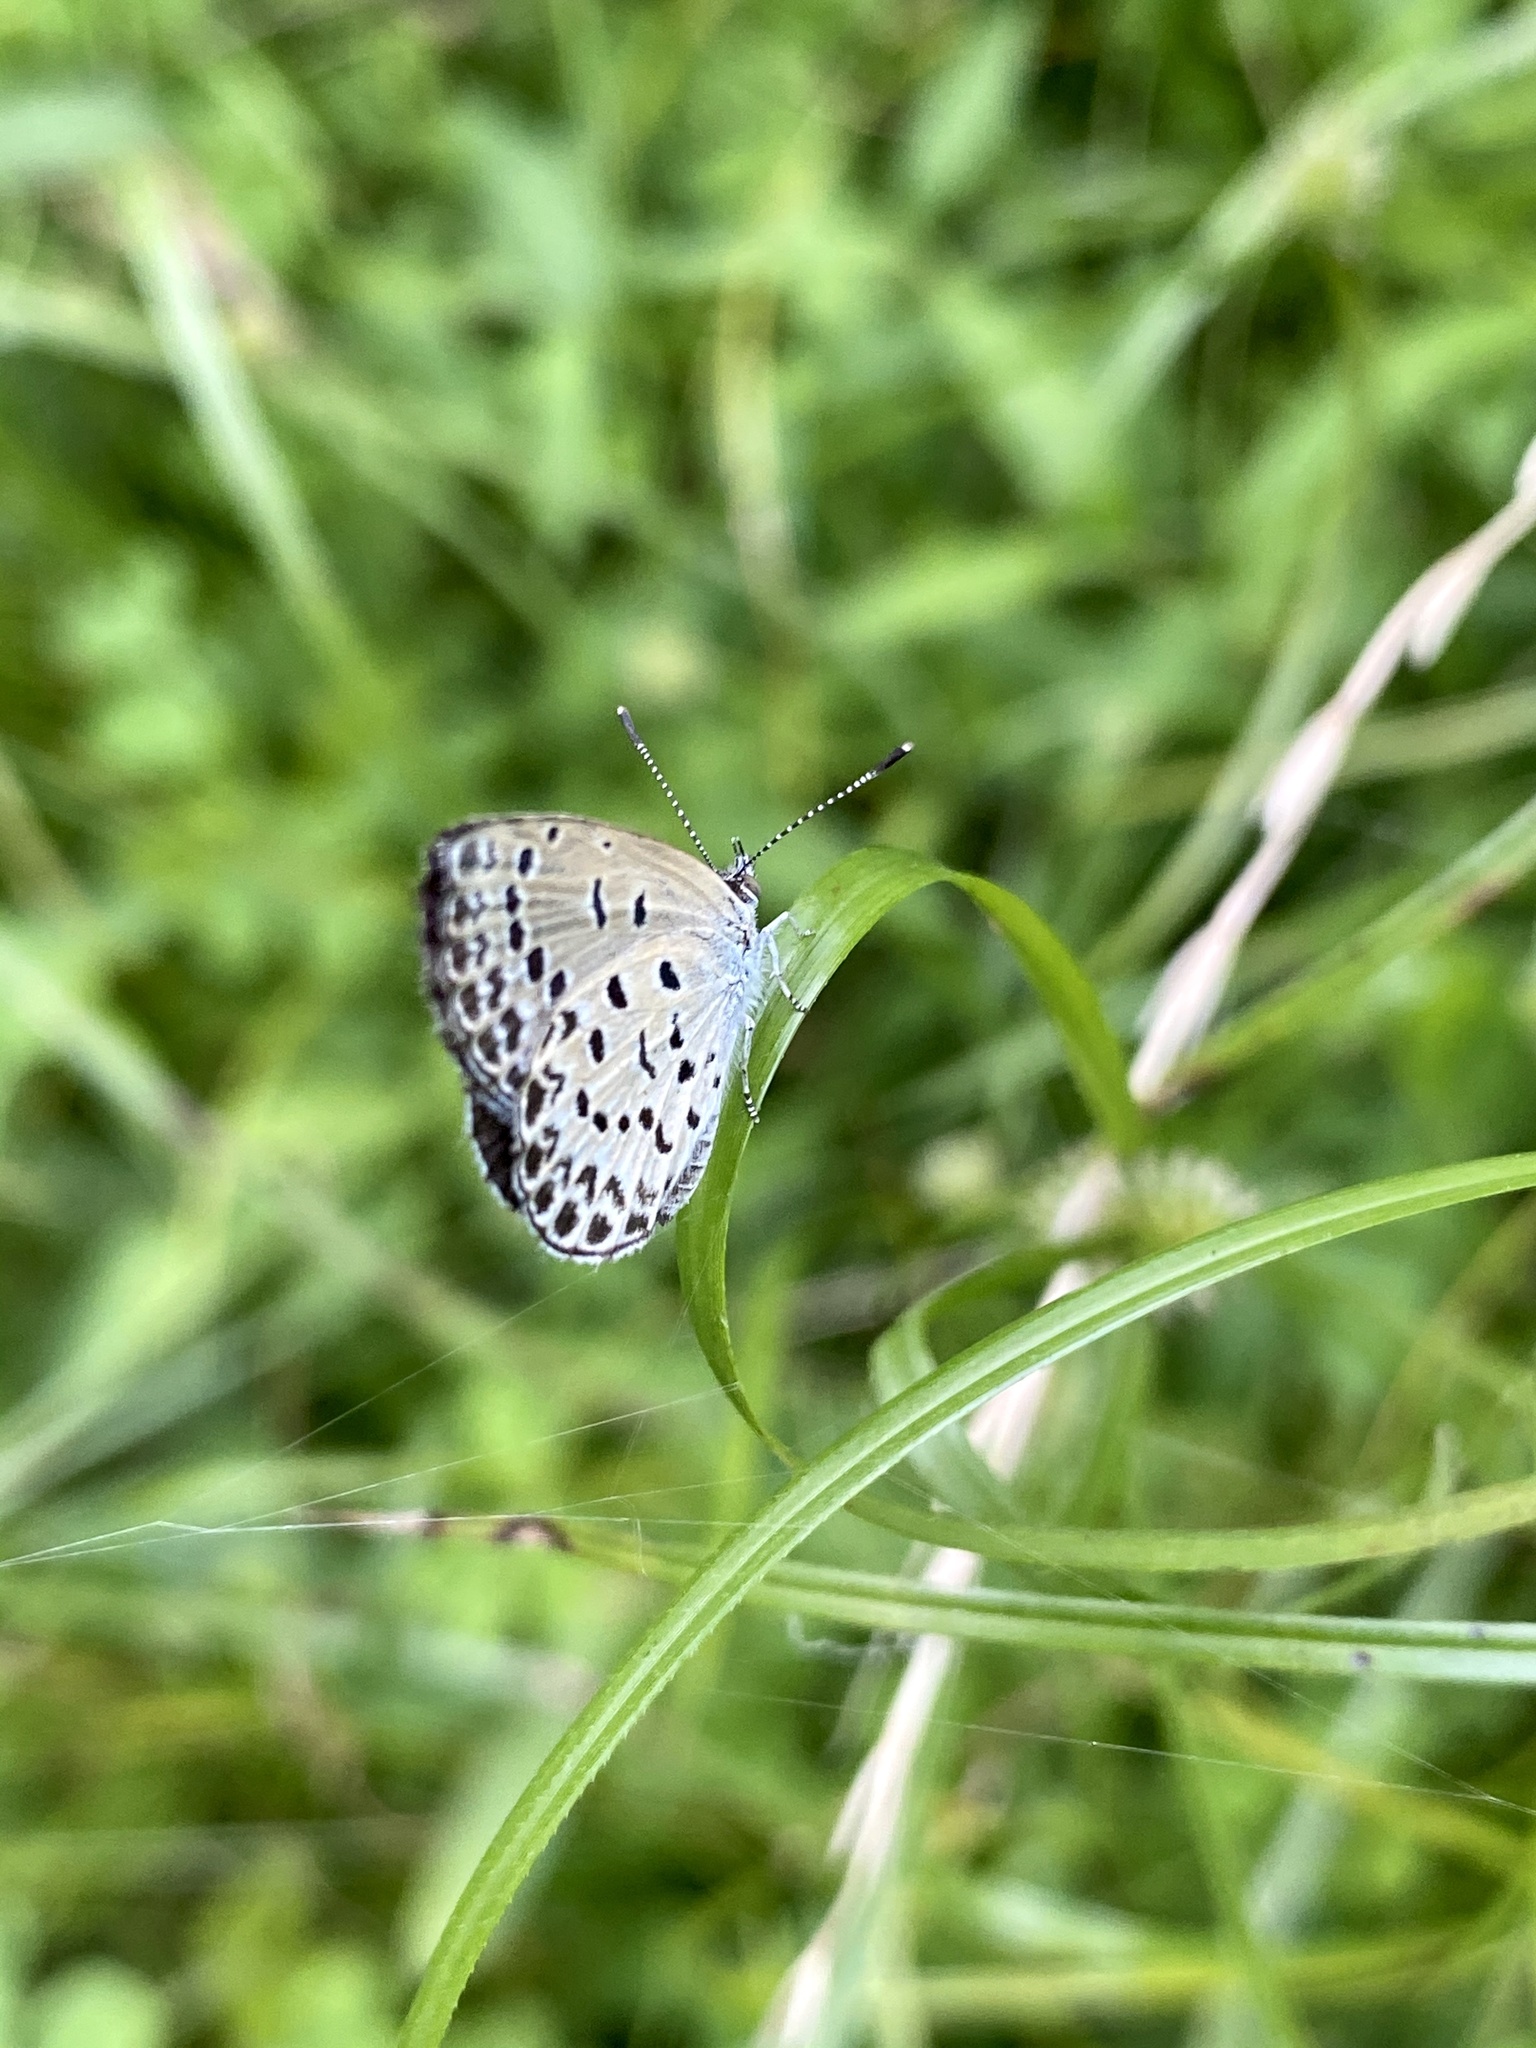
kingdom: Animalia
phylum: Arthropoda
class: Insecta
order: Lepidoptera
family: Lycaenidae
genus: Pseudozizeeria
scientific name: Pseudozizeeria maha
